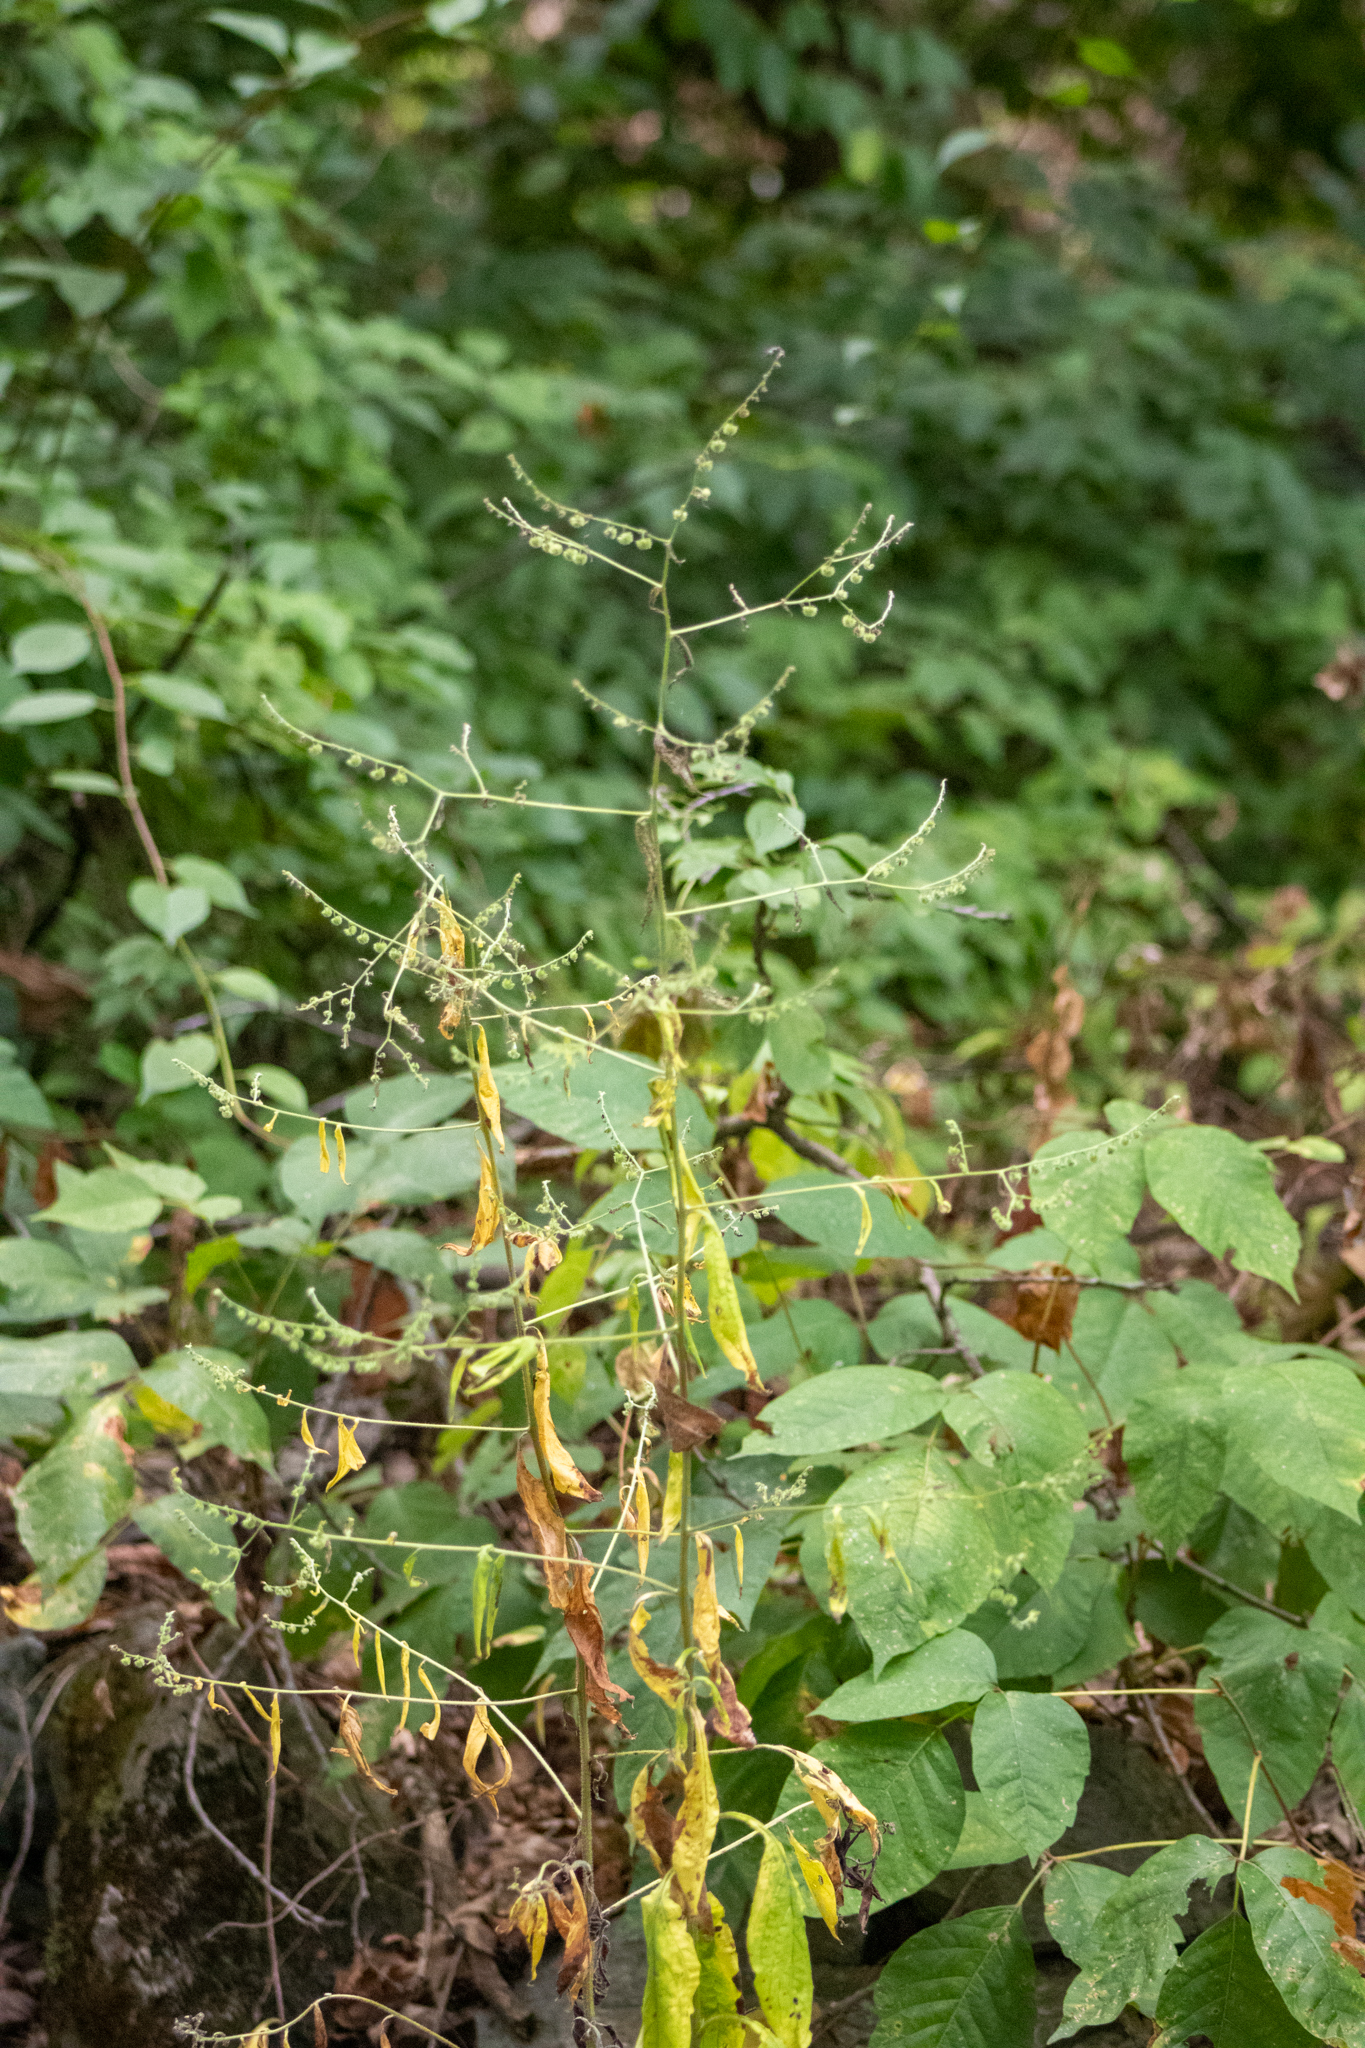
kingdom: Plantae
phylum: Tracheophyta
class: Magnoliopsida
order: Boraginales
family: Boraginaceae
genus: Hackelia
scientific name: Hackelia virginiana
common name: Beggar's-lice
